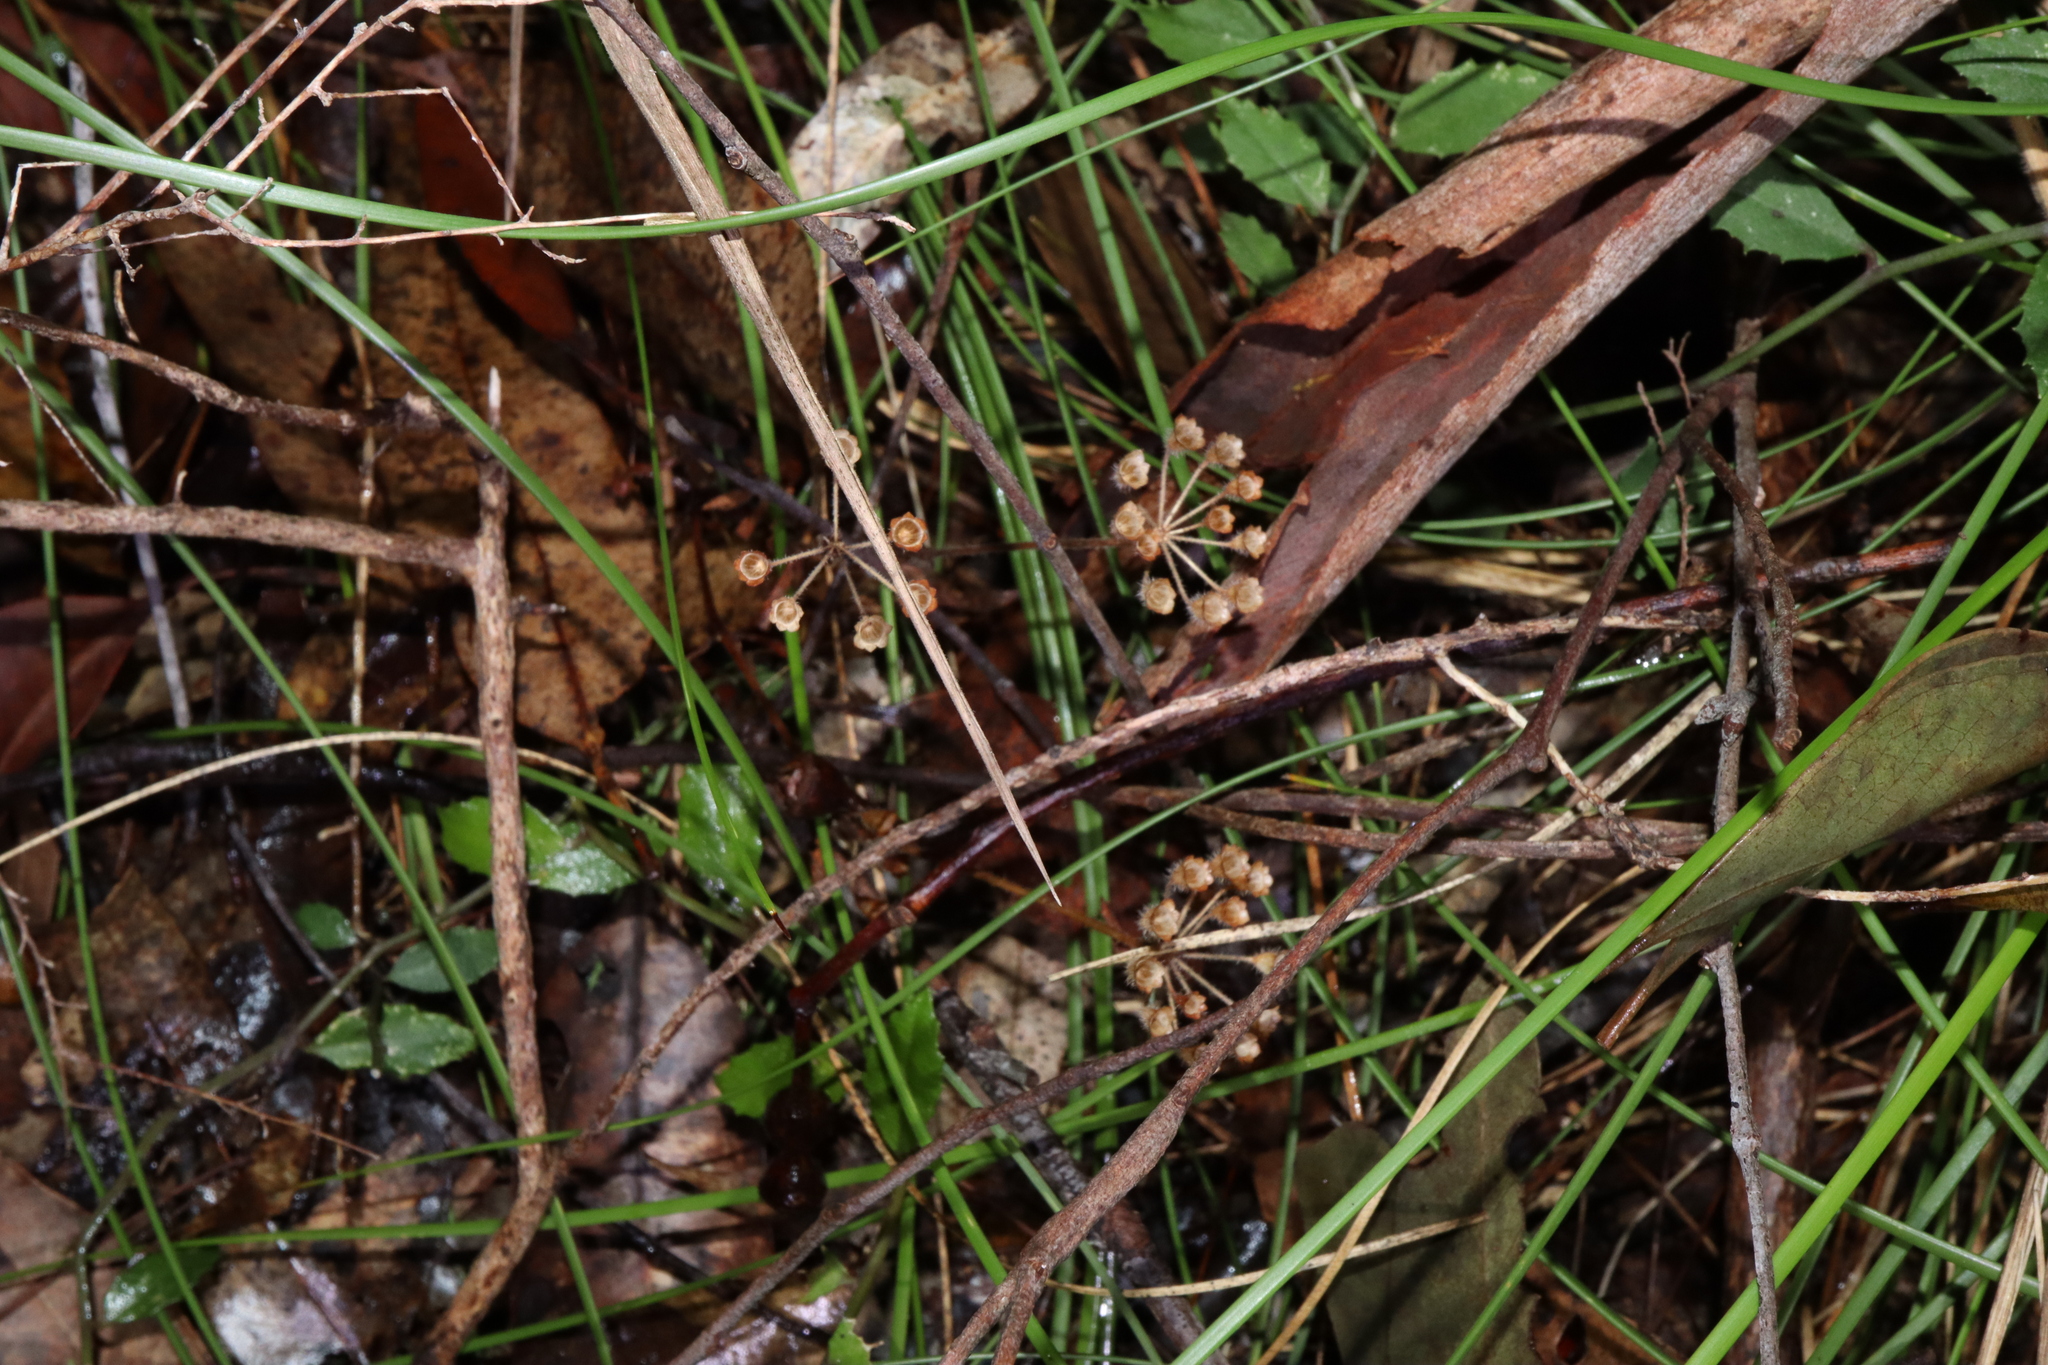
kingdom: Plantae
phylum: Tracheophyta
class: Magnoliopsida
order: Gentianales
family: Rubiaceae
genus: Pomax
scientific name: Pomax umbellata
